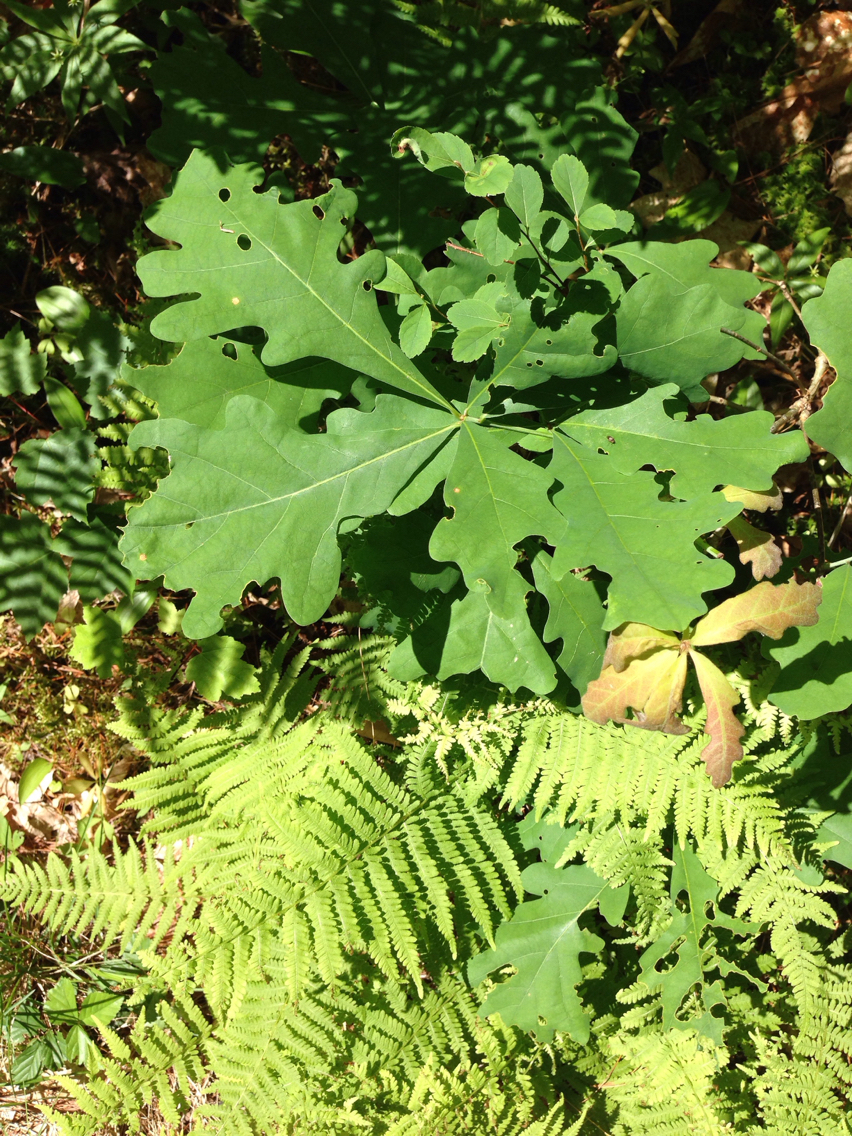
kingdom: Plantae
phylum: Tracheophyta
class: Magnoliopsida
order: Fagales
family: Fagaceae
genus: Quercus
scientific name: Quercus alba
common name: White oak
